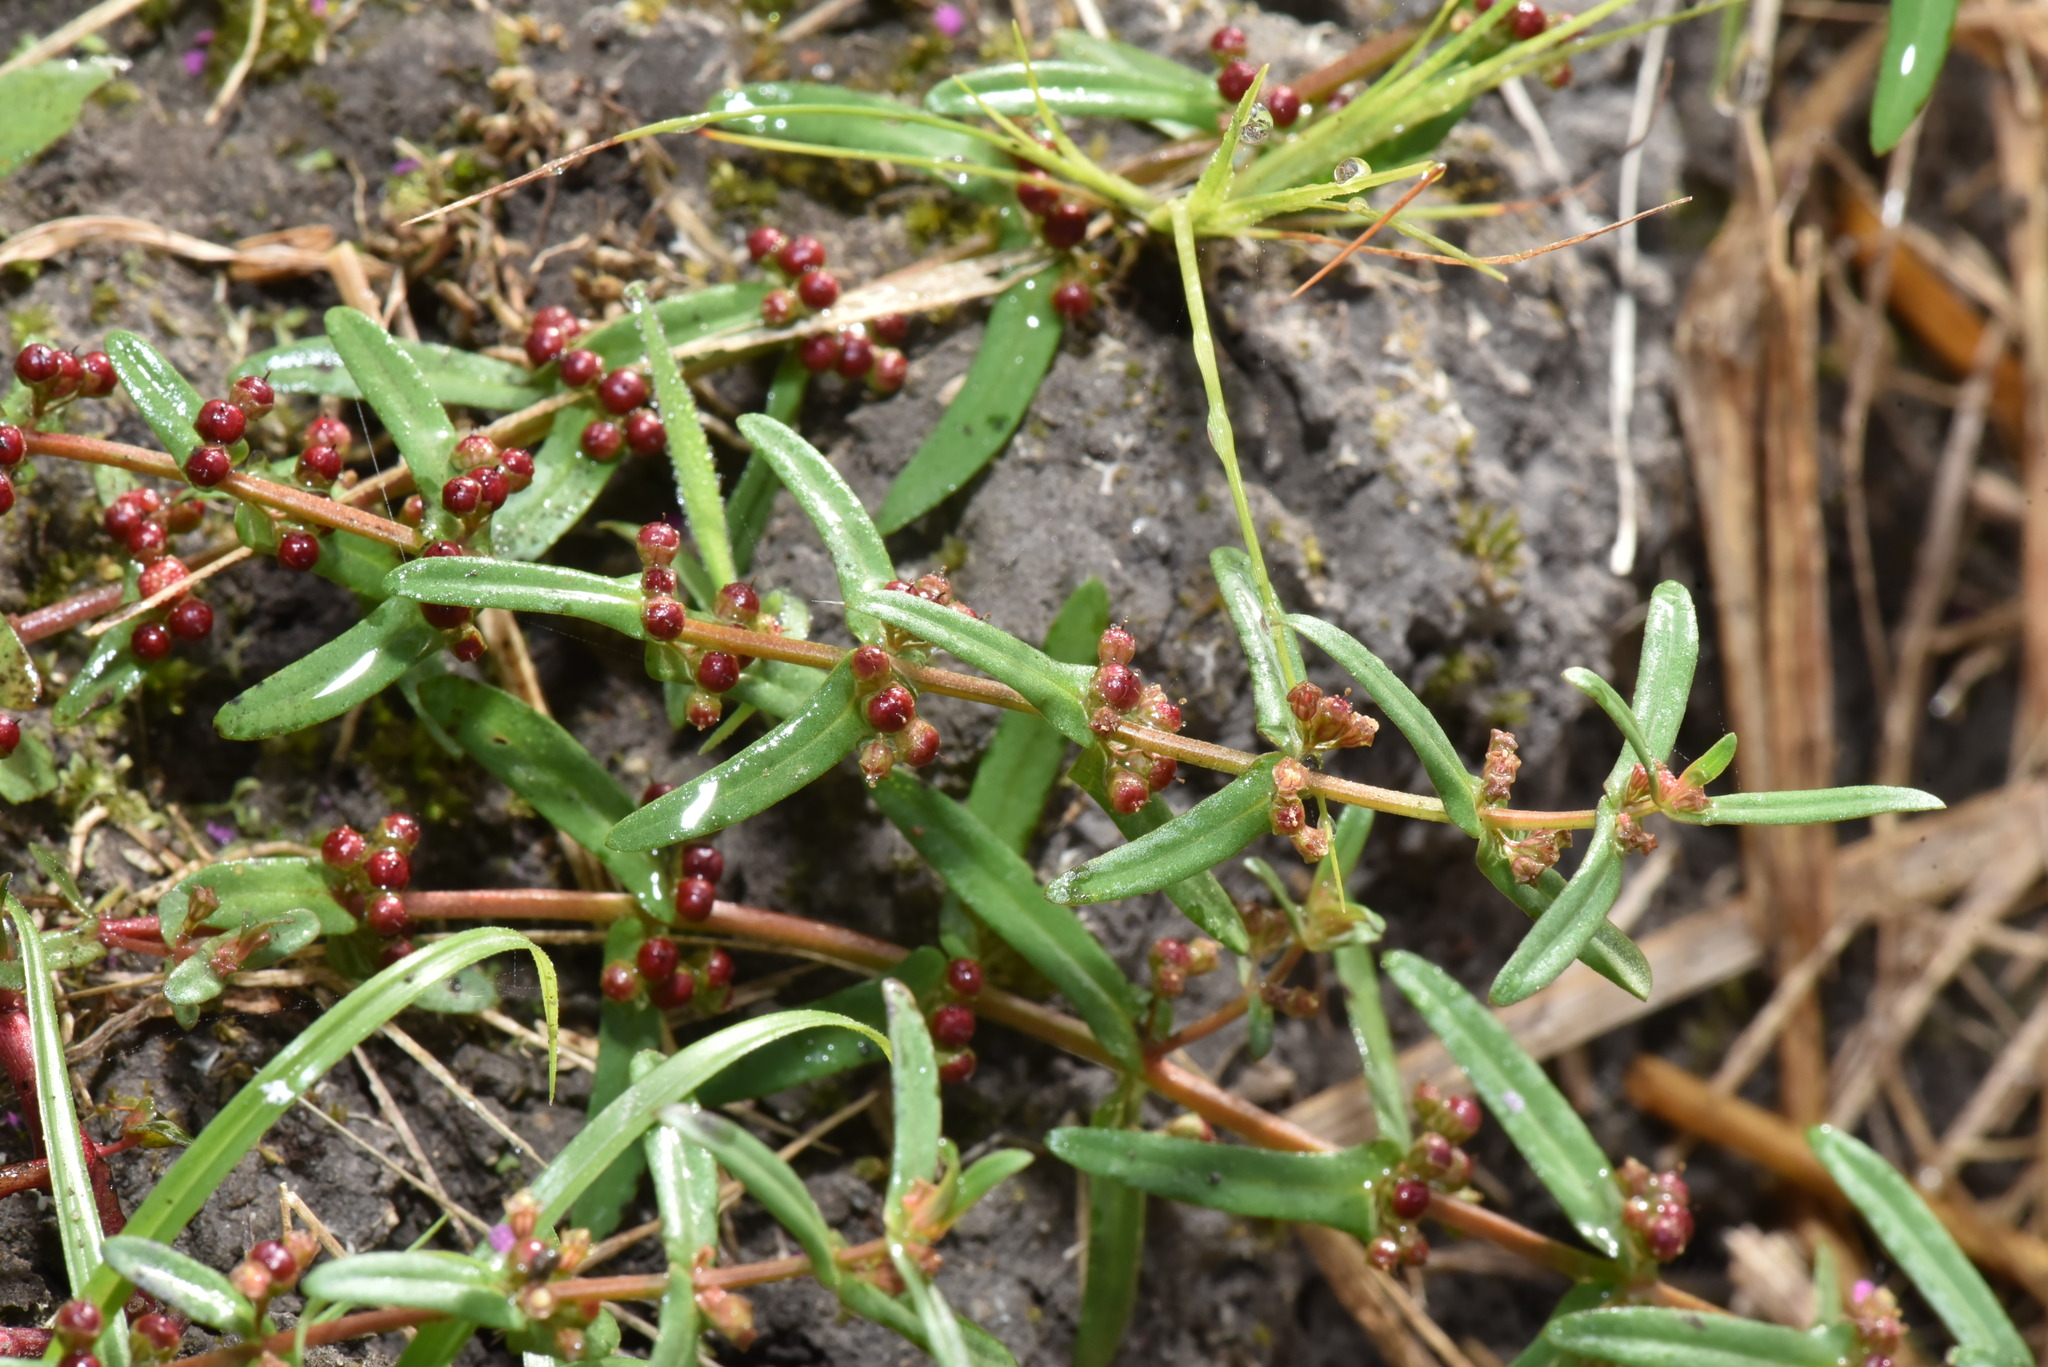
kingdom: Plantae
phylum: Tracheophyta
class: Magnoliopsida
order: Myrtales
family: Lythraceae
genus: Ammannia
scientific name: Ammannia auriculata
